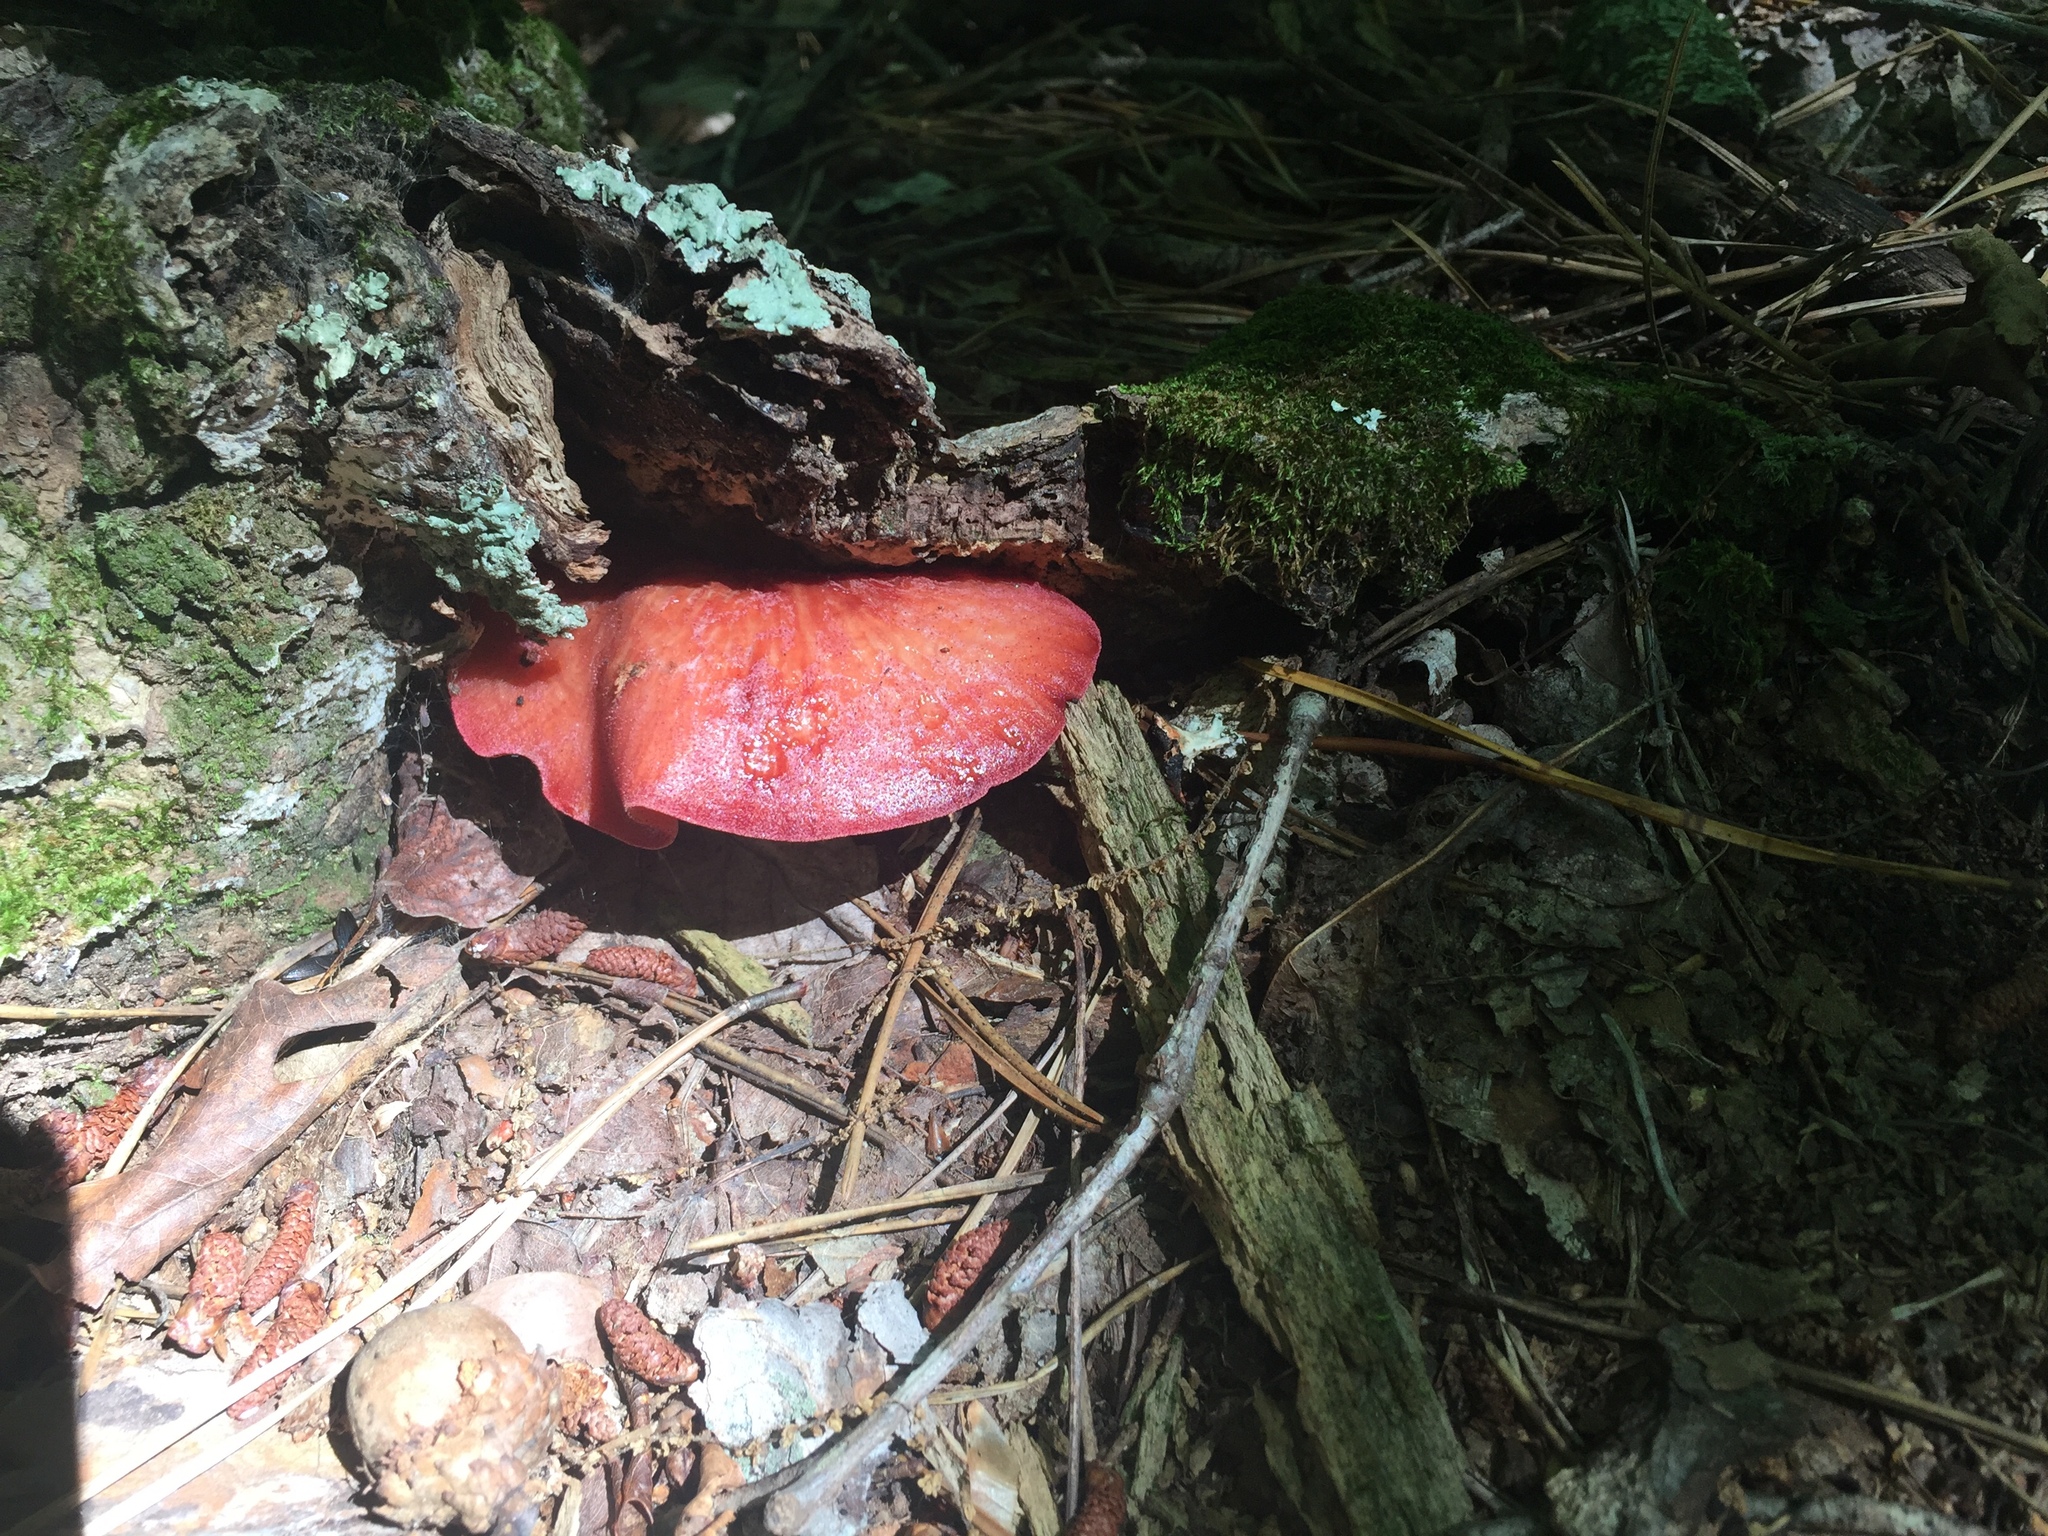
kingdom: Fungi
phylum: Basidiomycota
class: Agaricomycetes
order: Agaricales
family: Fistulinaceae
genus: Fistulina
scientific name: Fistulina hepatica
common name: Beef-steak fungus
